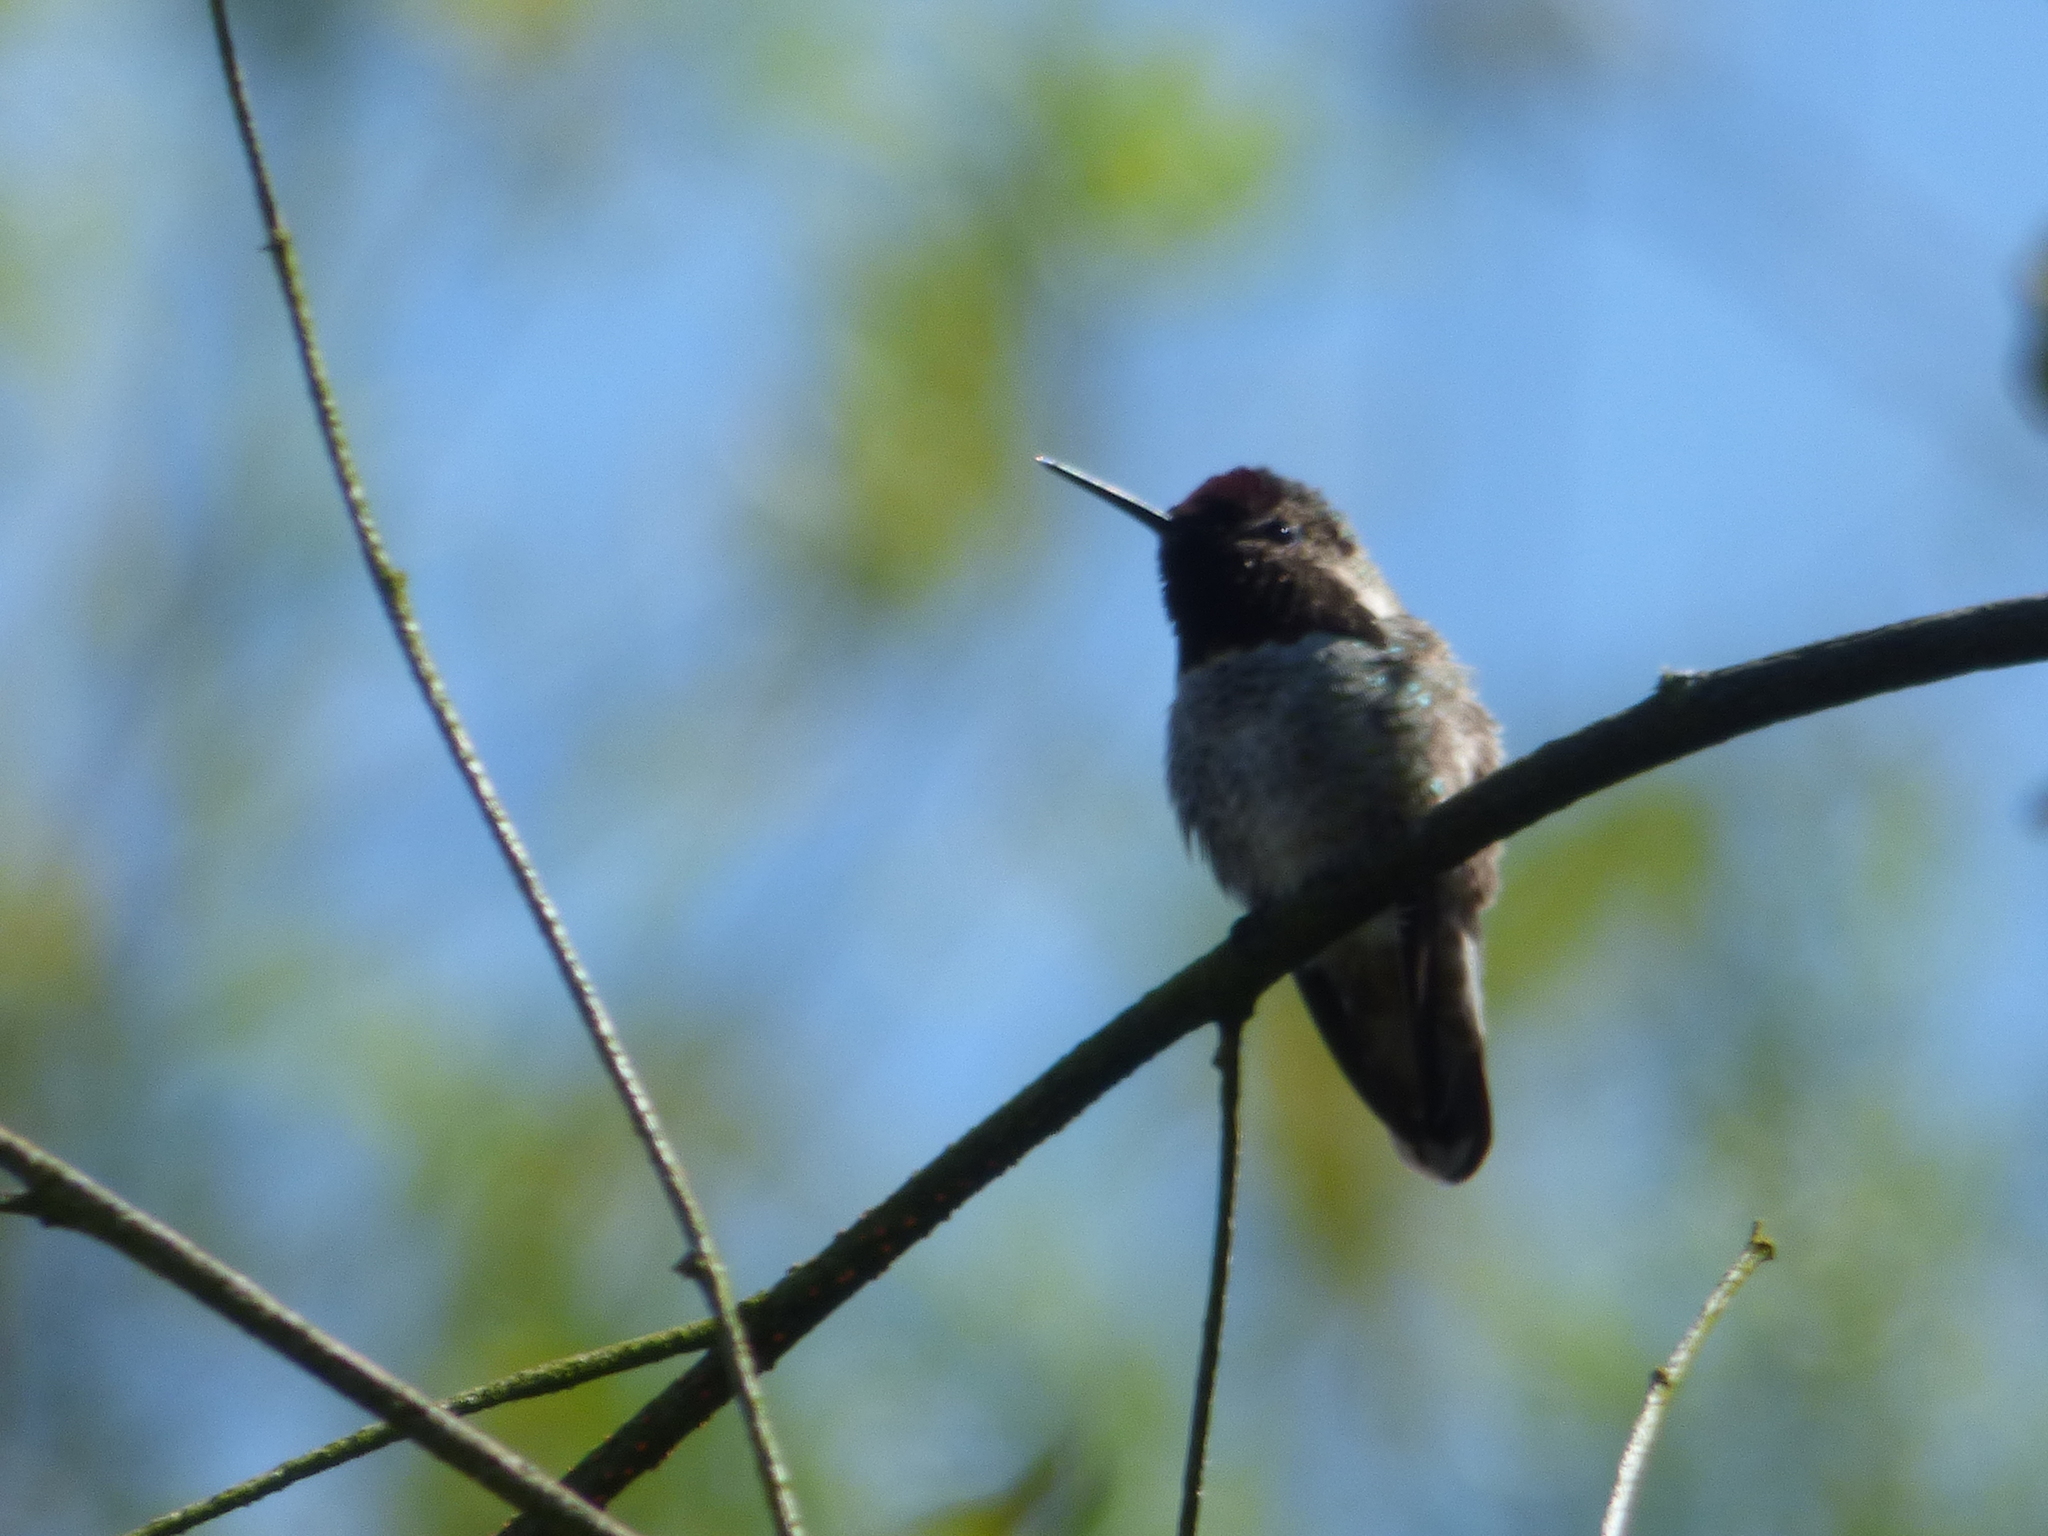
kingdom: Animalia
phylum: Chordata
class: Aves
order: Apodiformes
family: Trochilidae
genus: Calypte
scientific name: Calypte anna
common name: Anna's hummingbird
